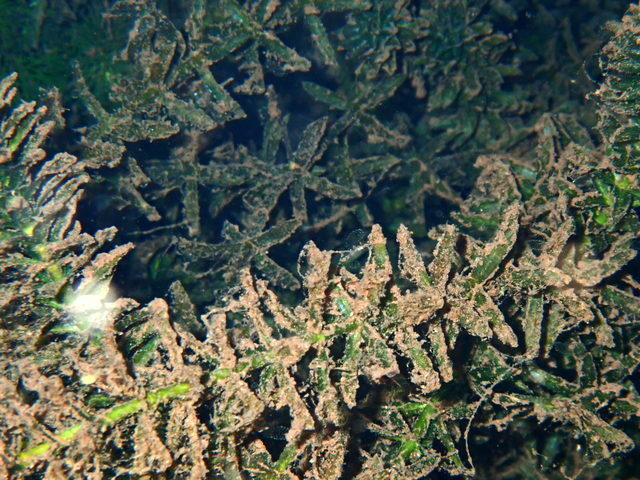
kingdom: Plantae
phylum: Tracheophyta
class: Liliopsida
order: Alismatales
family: Hydrocharitaceae
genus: Hydrilla
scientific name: Hydrilla verticillata
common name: Florida-elodea
